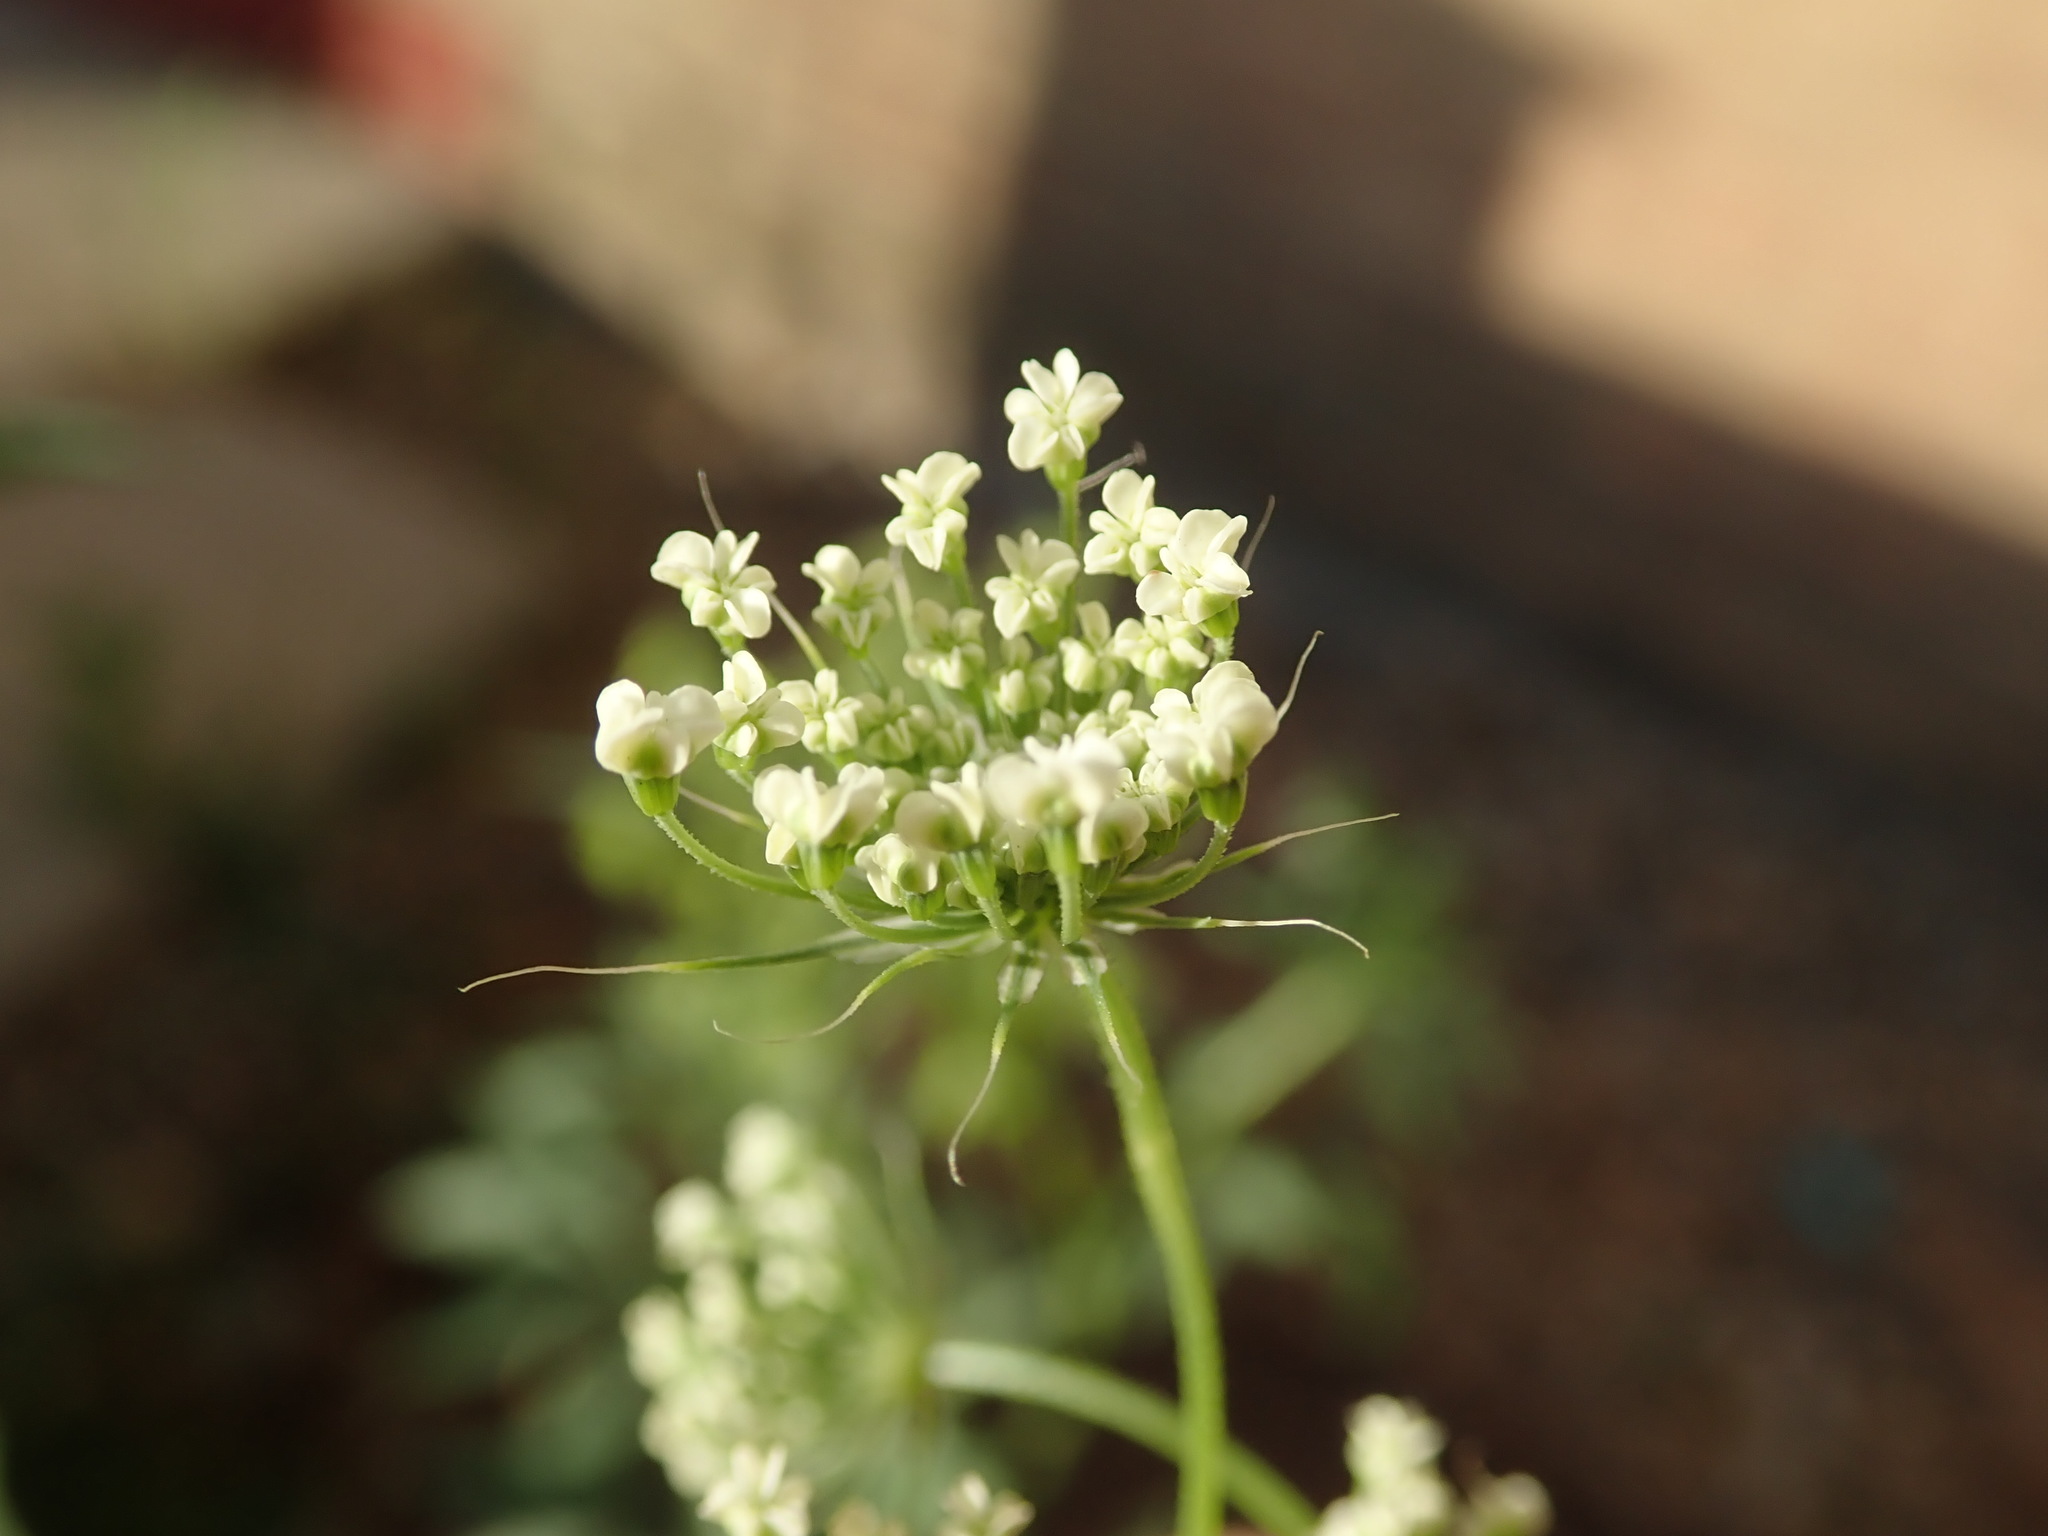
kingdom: Plantae
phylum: Tracheophyta
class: Magnoliopsida
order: Apiales
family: Apiaceae
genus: Ammi
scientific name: Ammi majus
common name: Bullwort
